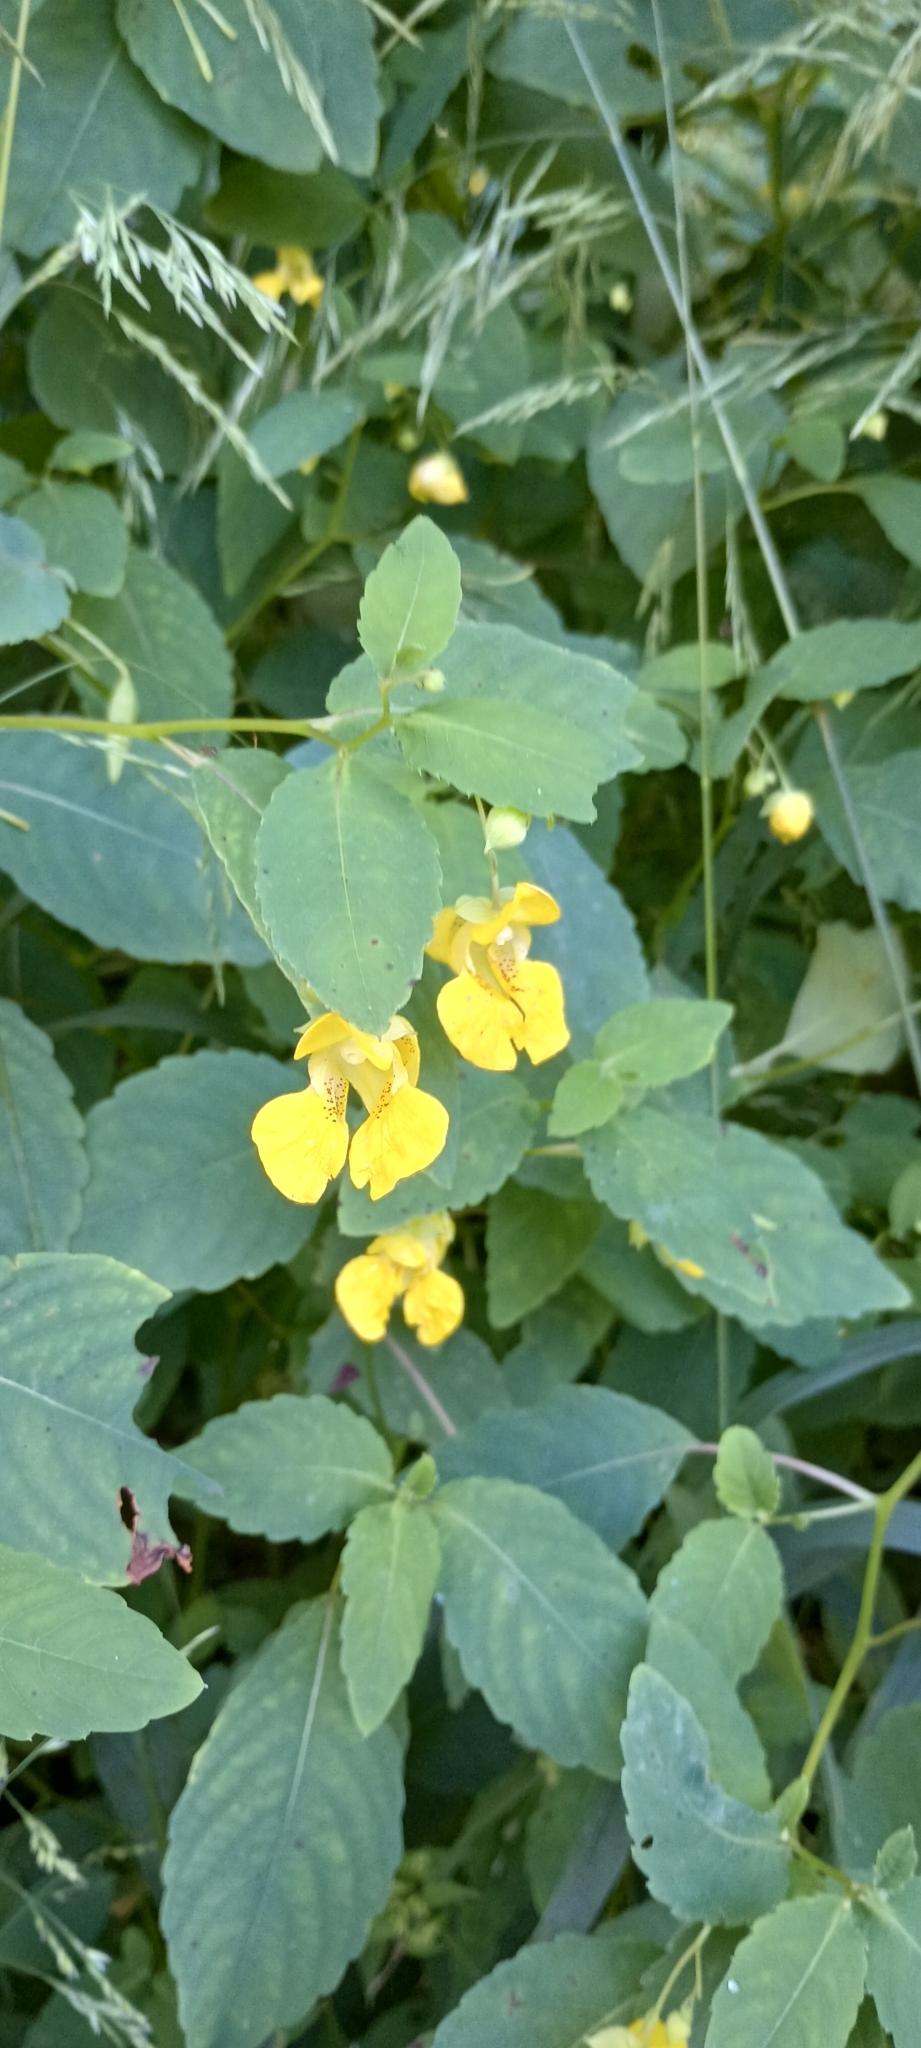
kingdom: Plantae
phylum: Tracheophyta
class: Magnoliopsida
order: Ericales
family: Balsaminaceae
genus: Impatiens
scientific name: Impatiens pallida
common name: Pale snapweed
